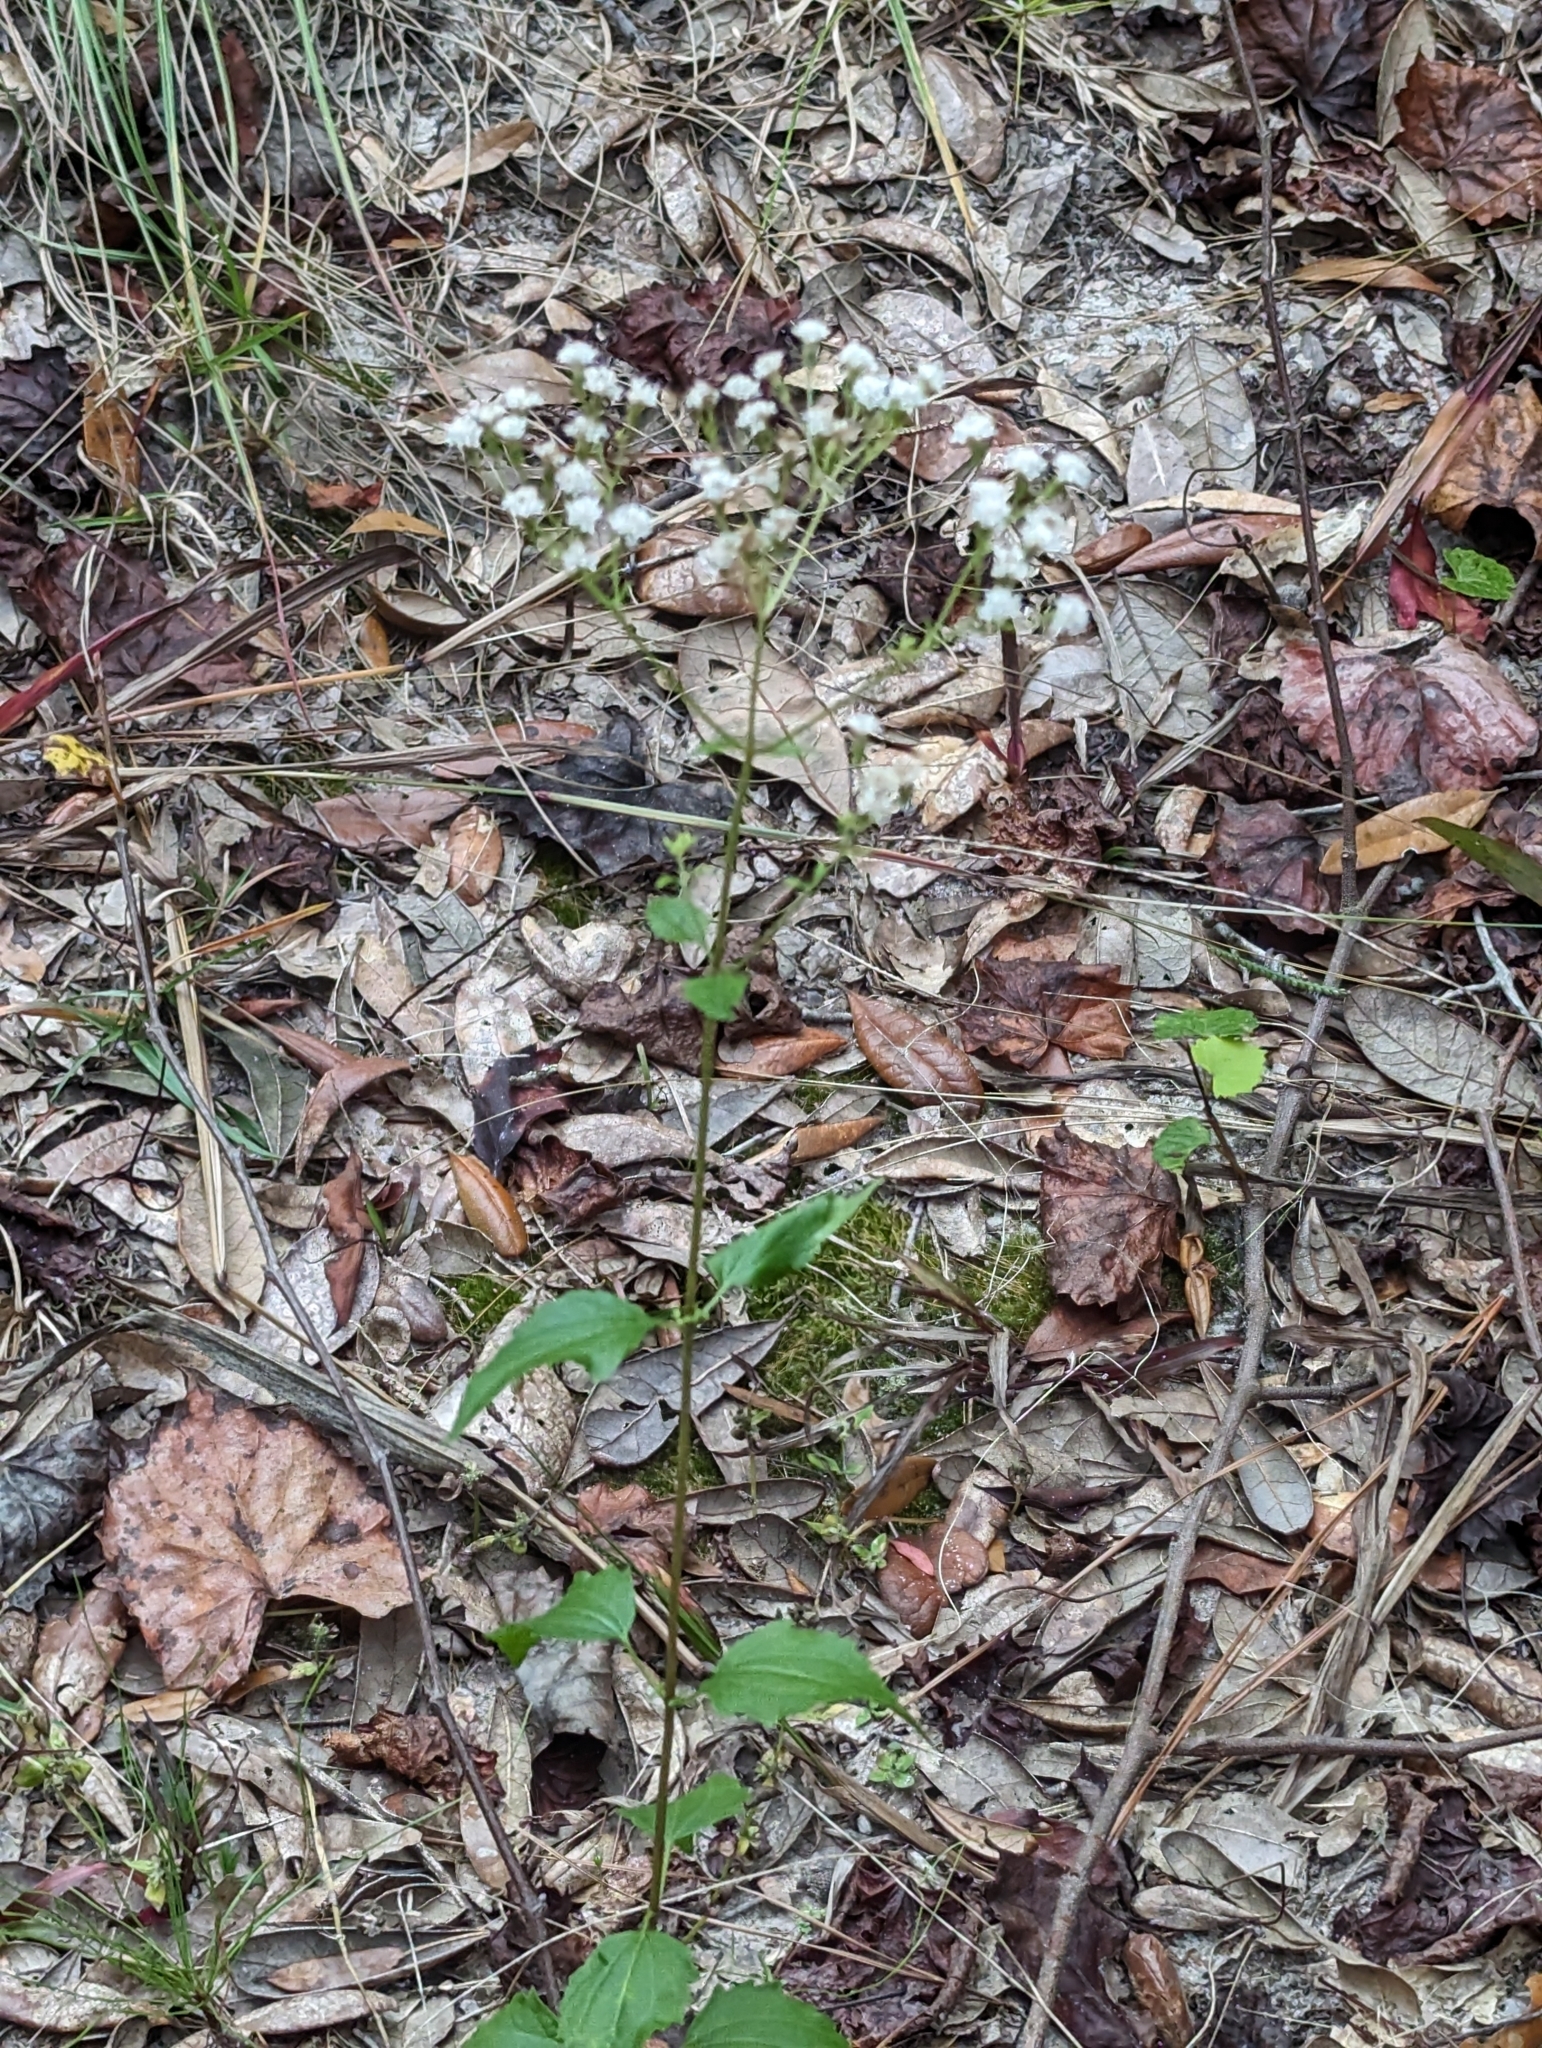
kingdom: Plantae
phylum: Tracheophyta
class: Magnoliopsida
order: Asterales
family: Asteraceae
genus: Ageratina
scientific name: Ageratina jucunda
